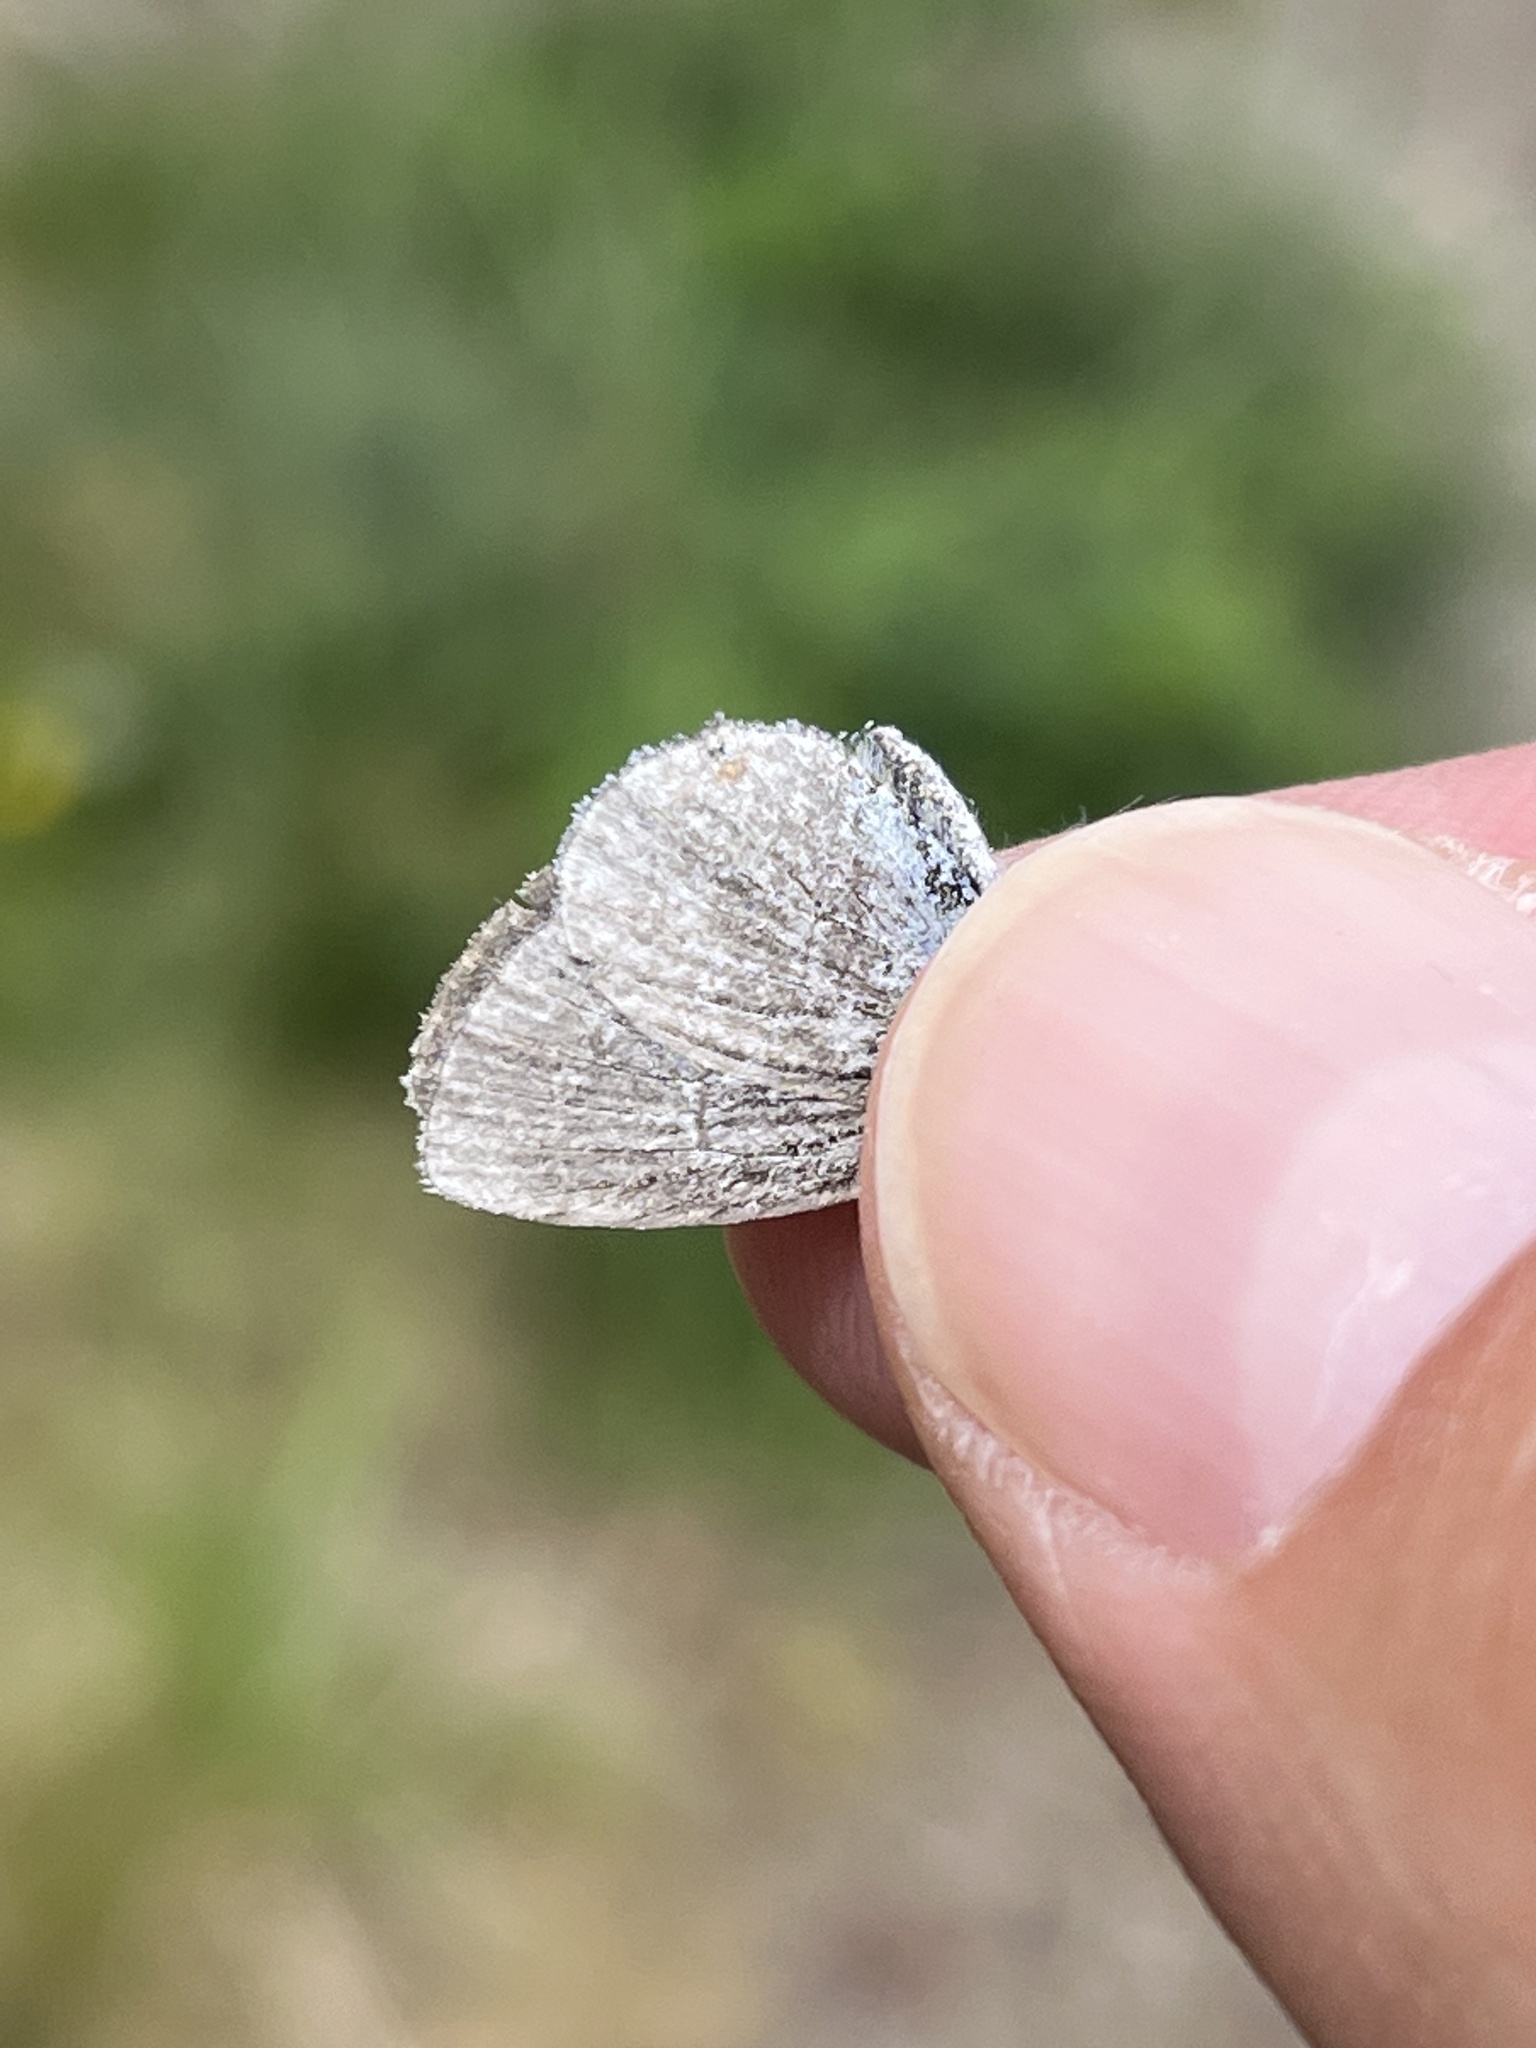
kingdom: Animalia
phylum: Arthropoda
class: Insecta
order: Lepidoptera
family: Lycaenidae
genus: Elkalyce
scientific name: Elkalyce amyntula
